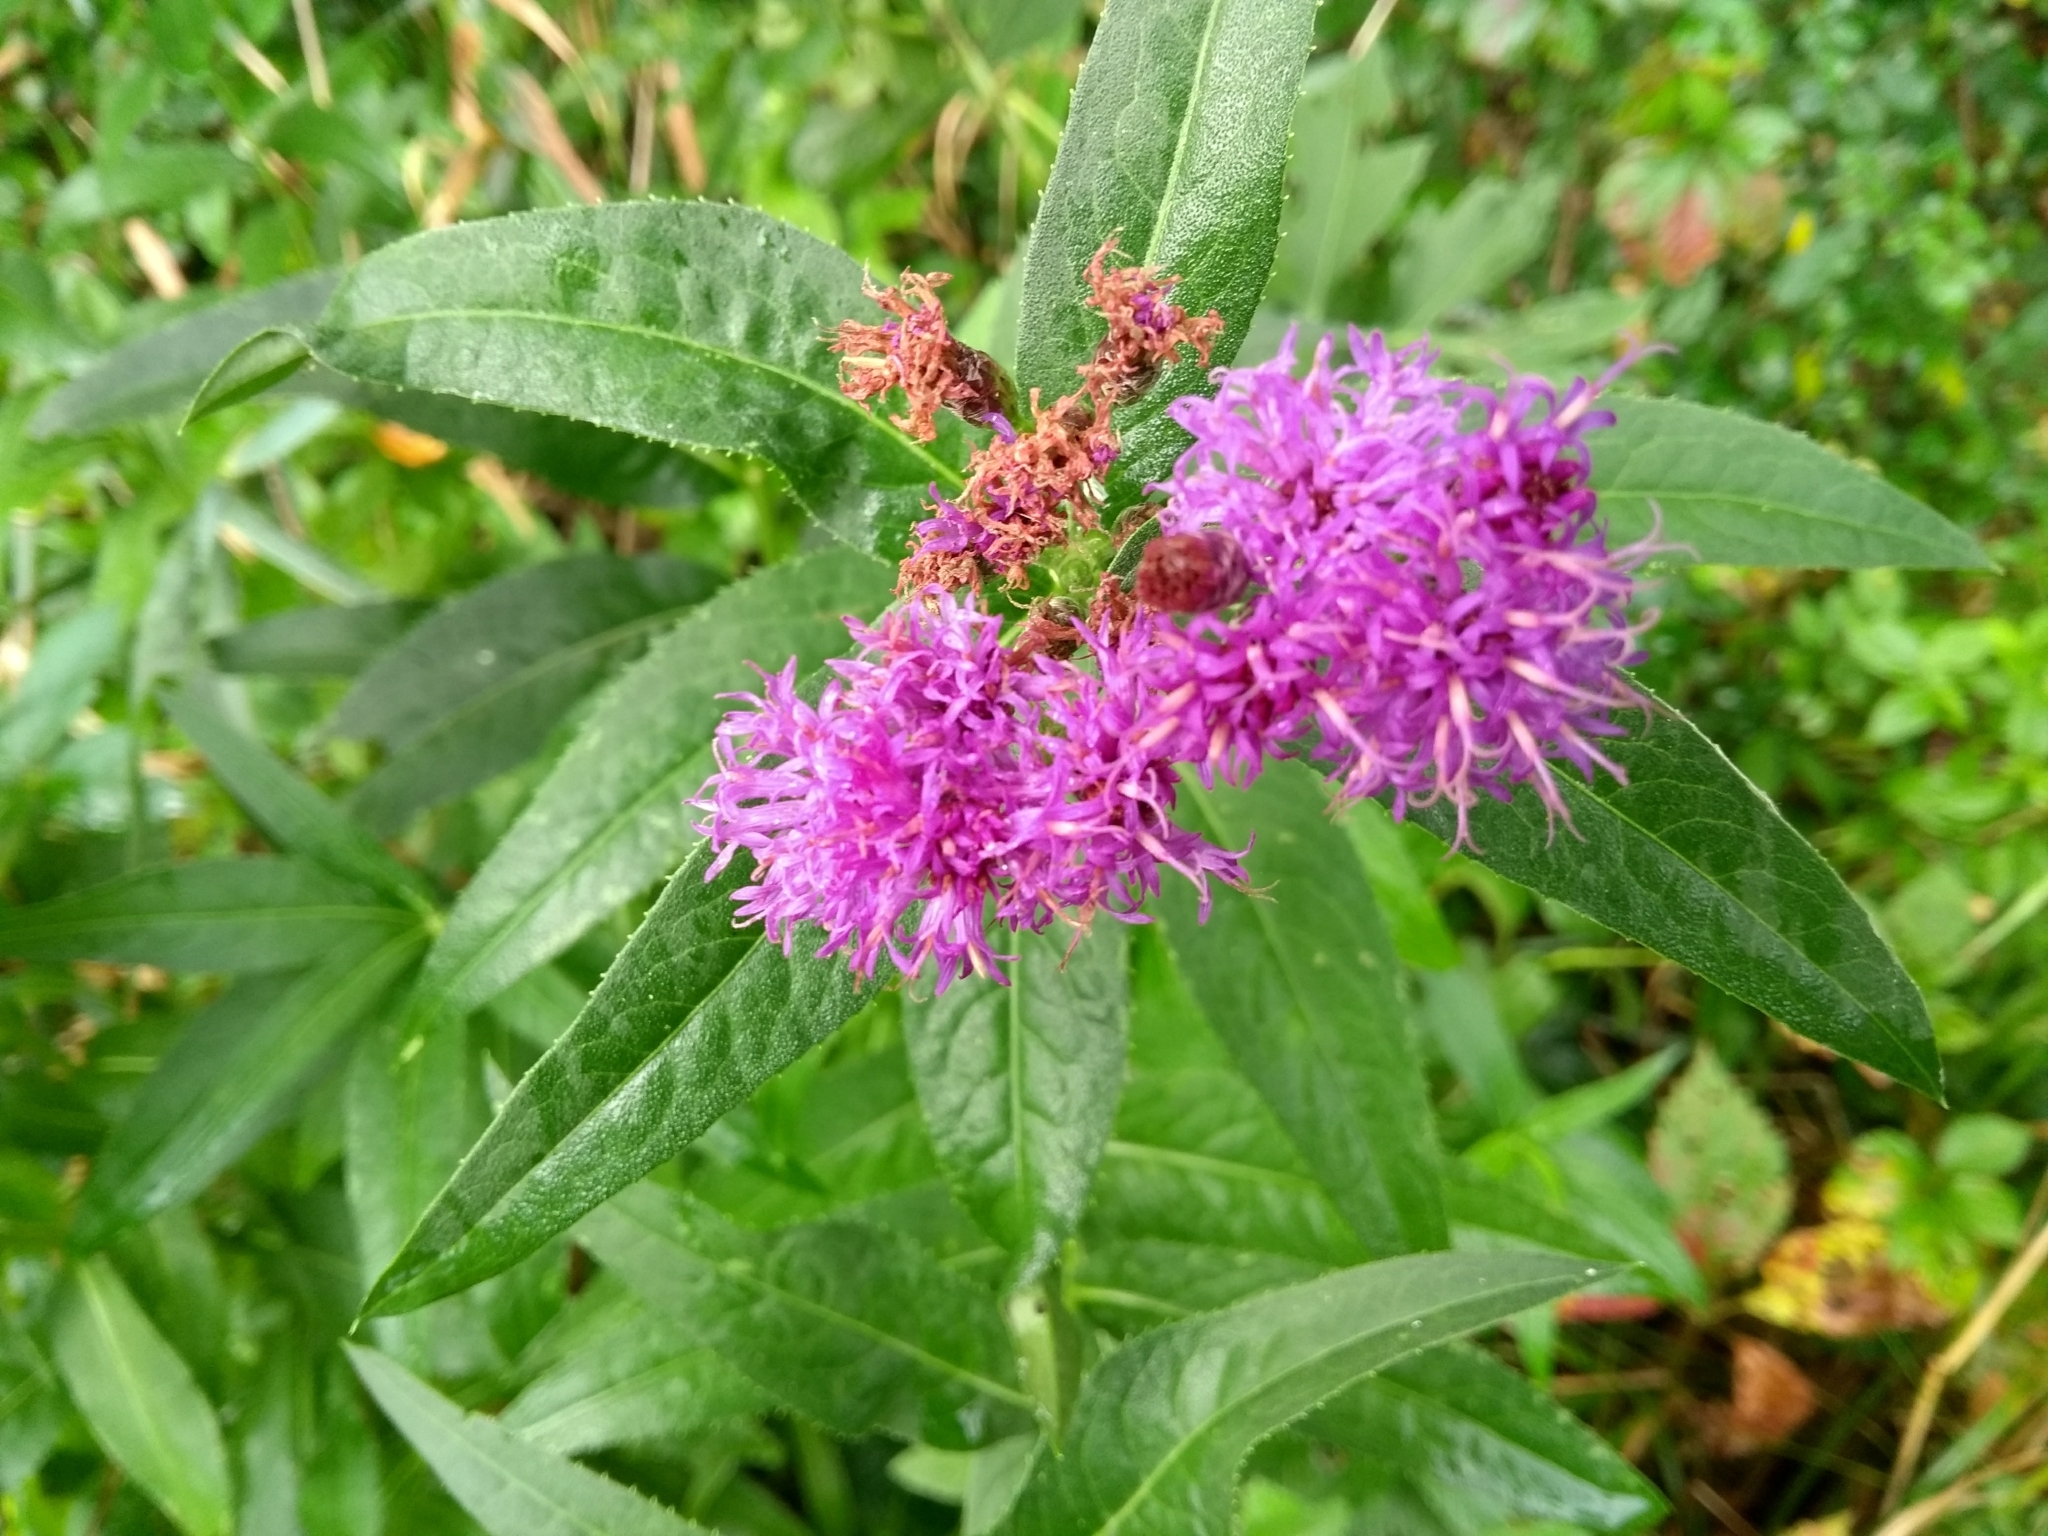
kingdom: Plantae
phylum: Tracheophyta
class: Magnoliopsida
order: Asterales
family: Asteraceae
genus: Vernonia
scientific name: Vernonia fasciculata
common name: Fascicled ironweed
